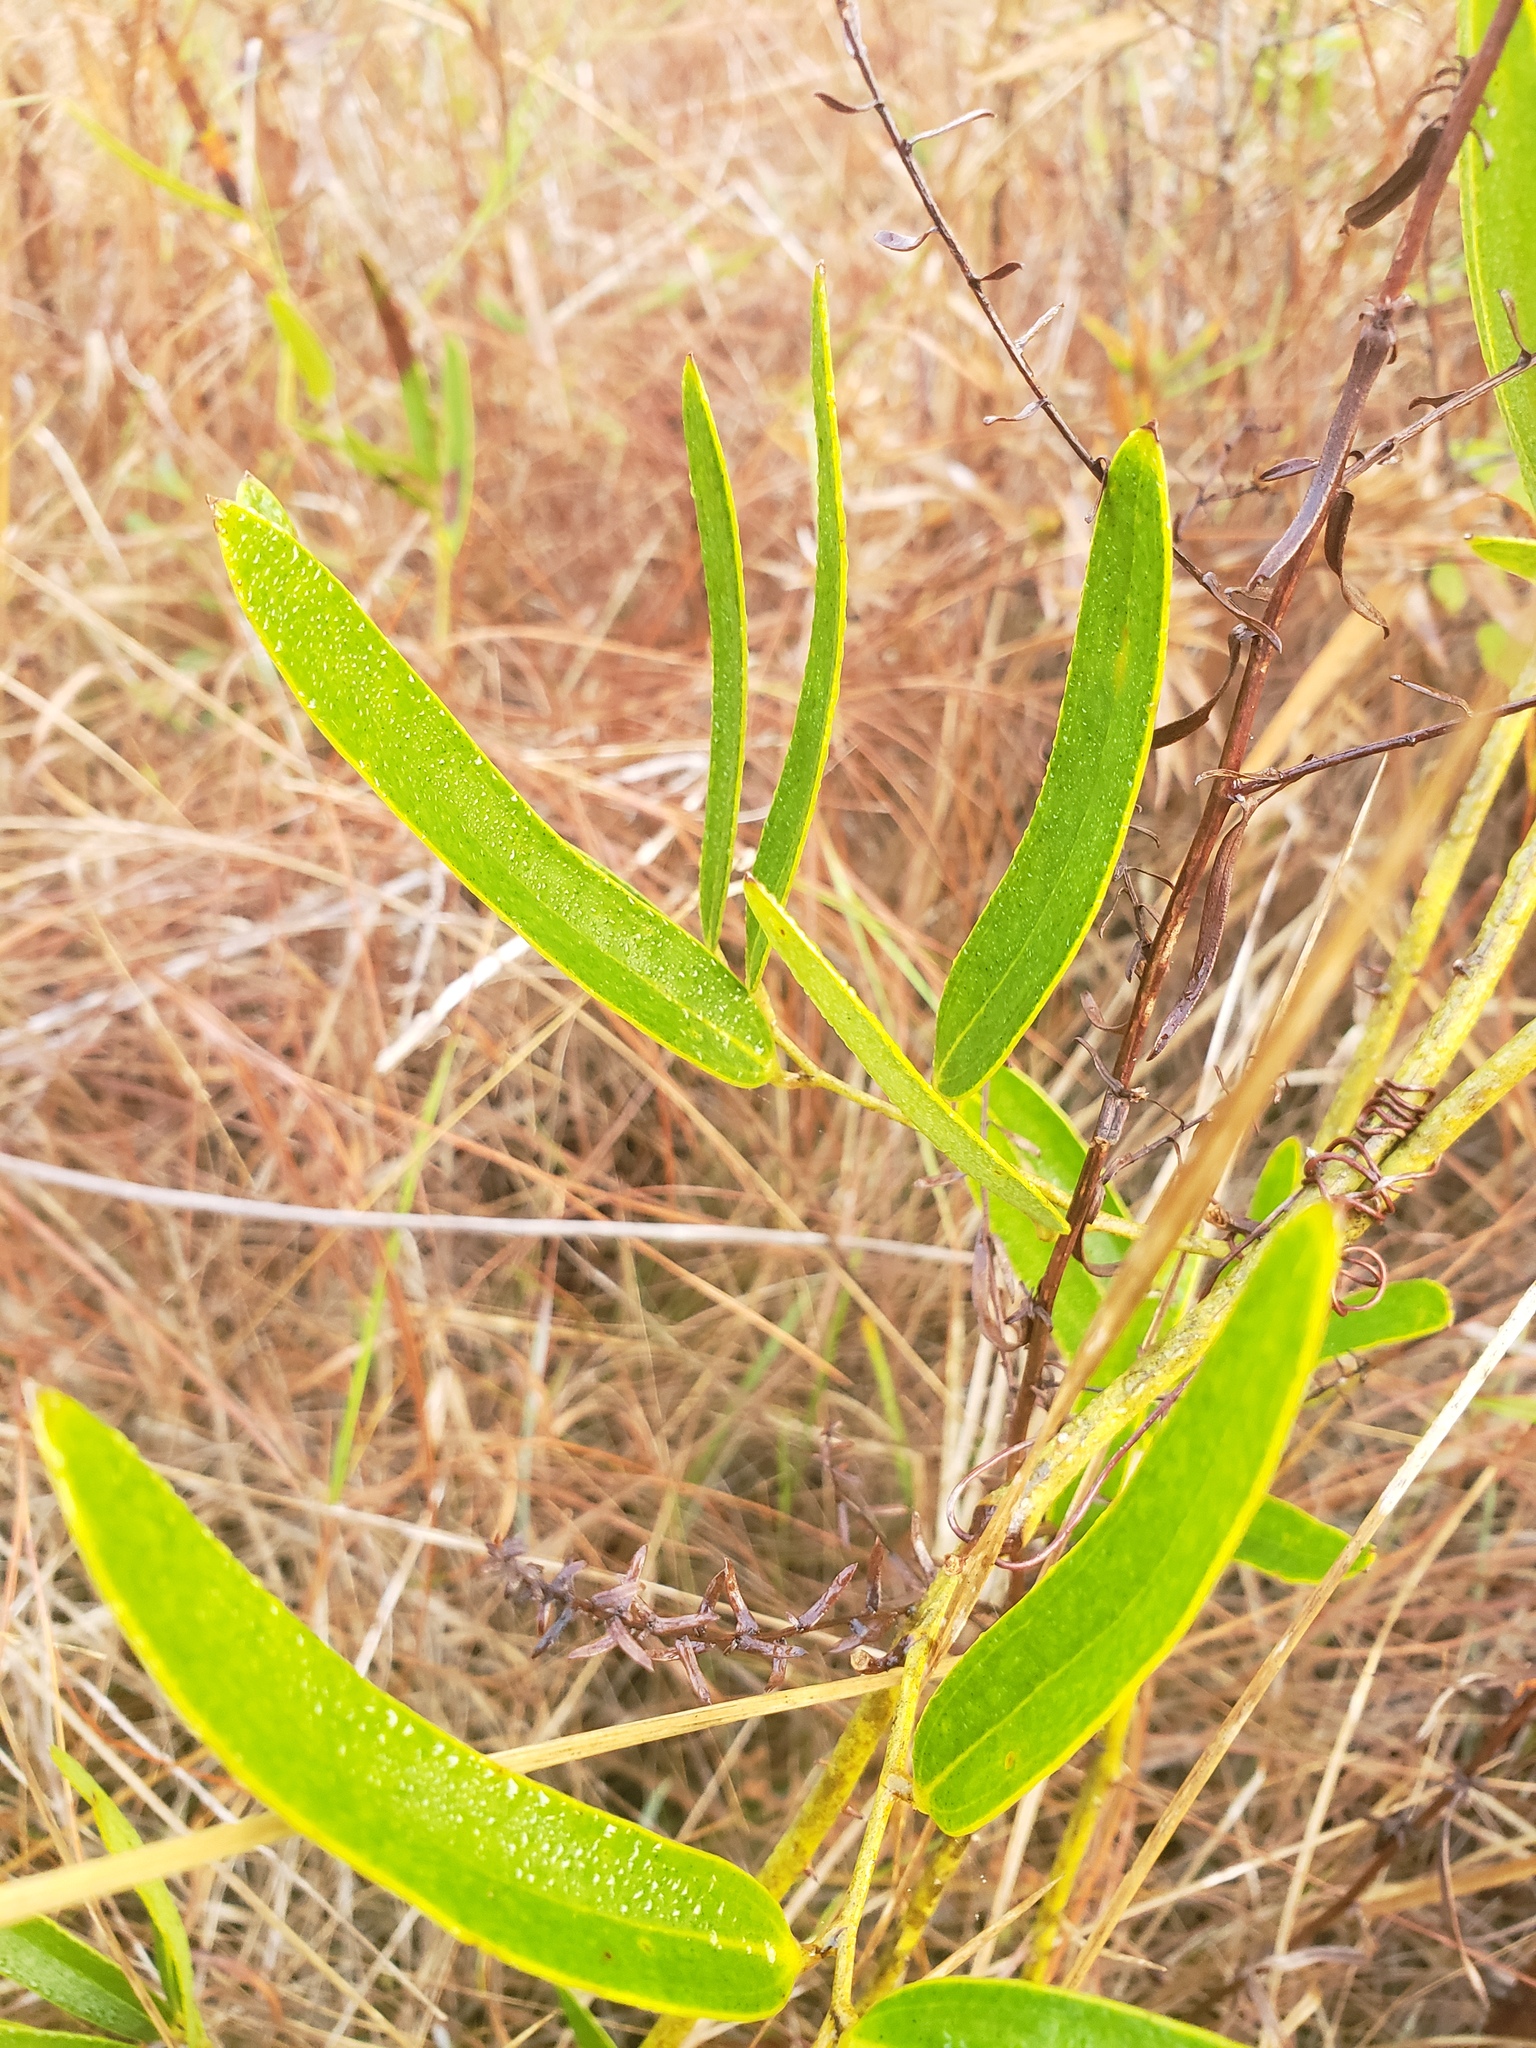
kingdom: Plantae
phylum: Tracheophyta
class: Liliopsida
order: Liliales
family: Smilacaceae
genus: Smilax
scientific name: Smilax laurifolia
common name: Bamboovine
